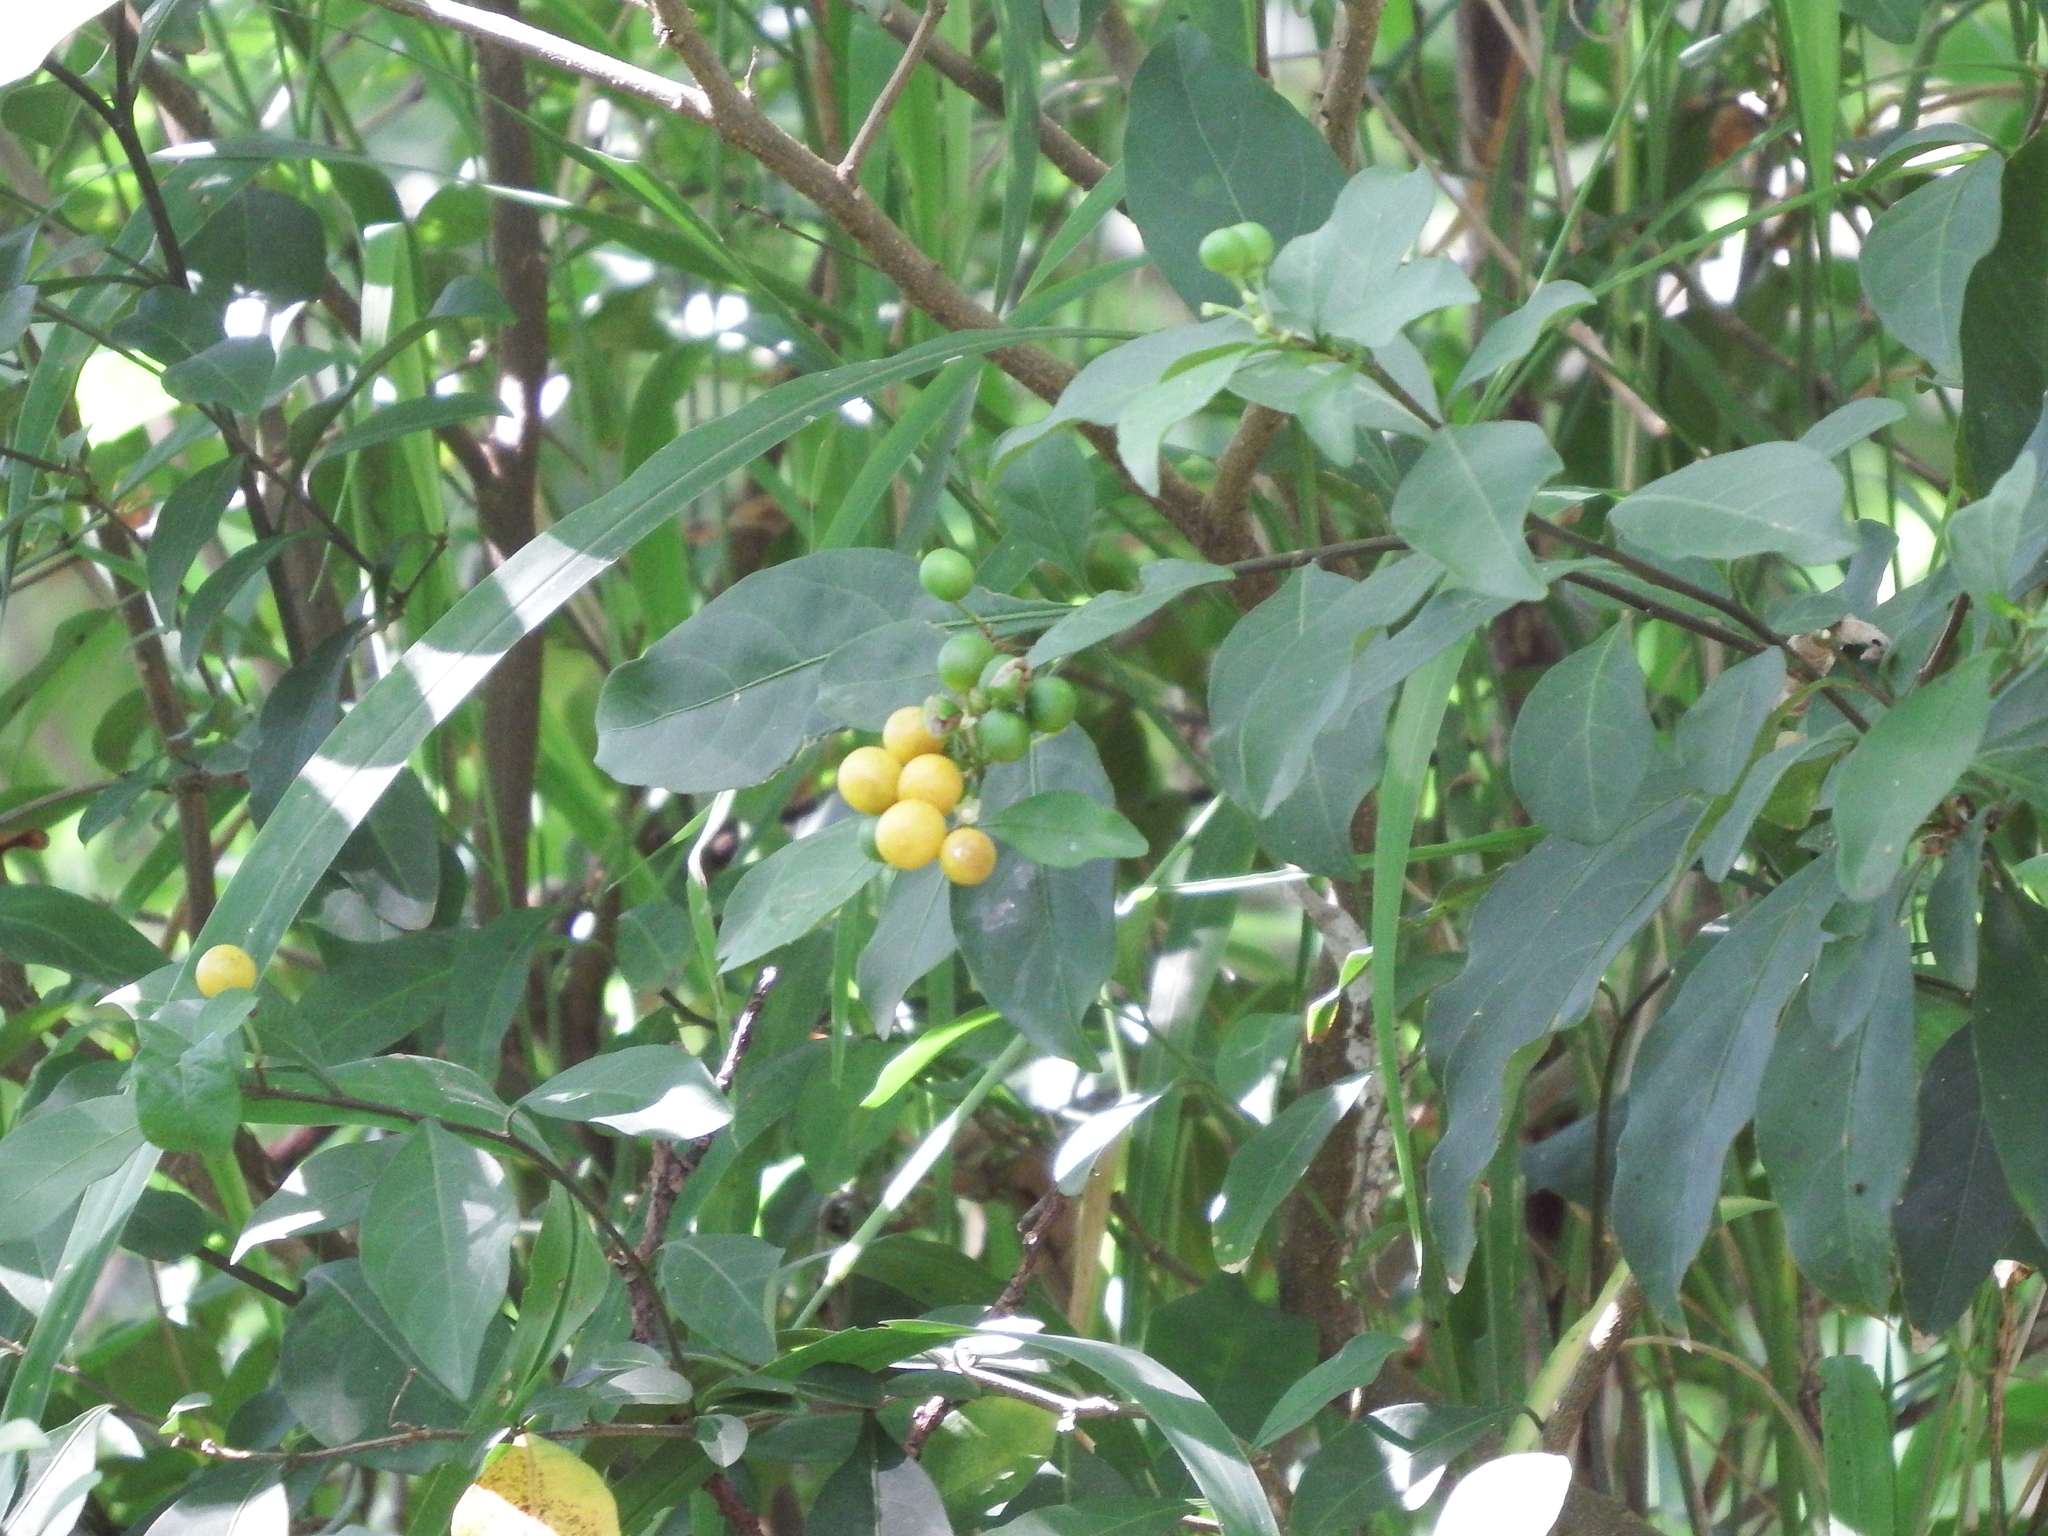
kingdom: Plantae
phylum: Tracheophyta
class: Magnoliopsida
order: Solanales
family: Solanaceae
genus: Solanum
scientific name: Solanum diphyllum
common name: Twoleaf nightshade
